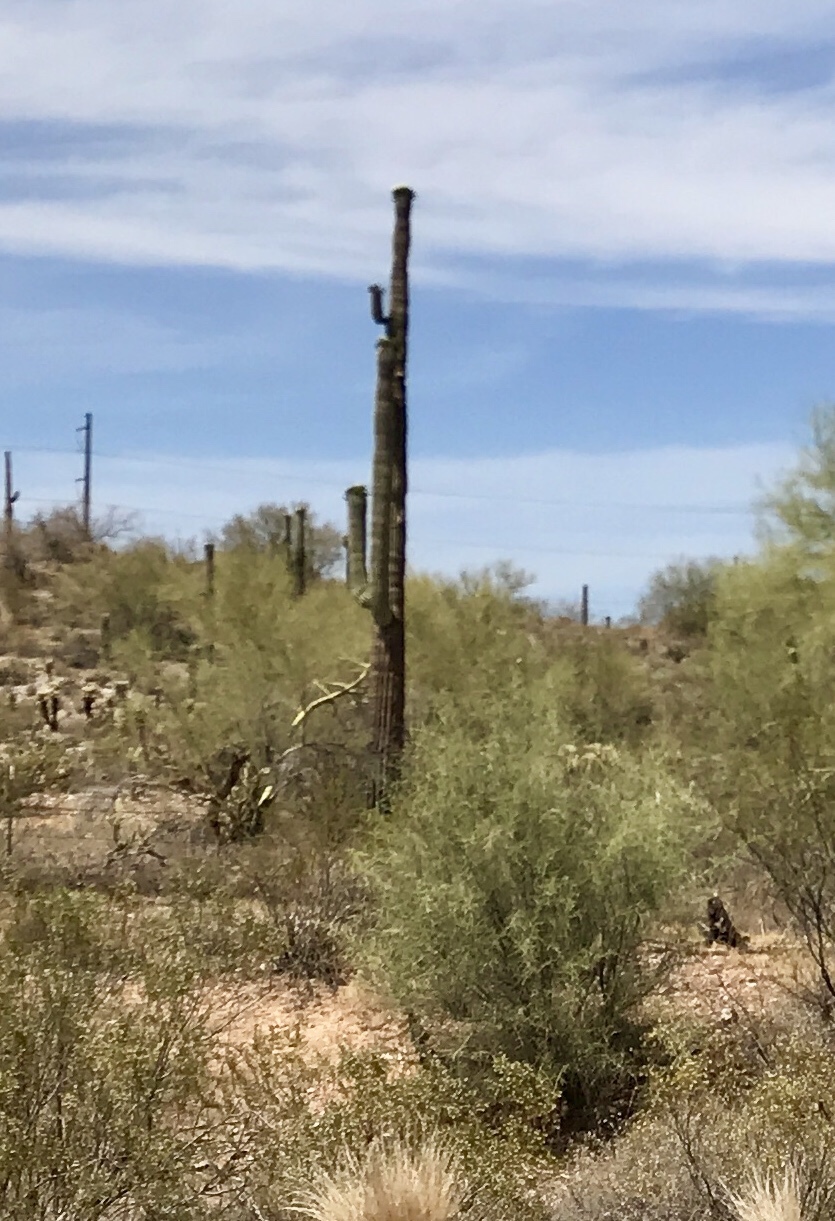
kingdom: Plantae
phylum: Tracheophyta
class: Magnoliopsida
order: Caryophyllales
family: Cactaceae
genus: Carnegiea
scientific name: Carnegiea gigantea
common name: Saguaro
